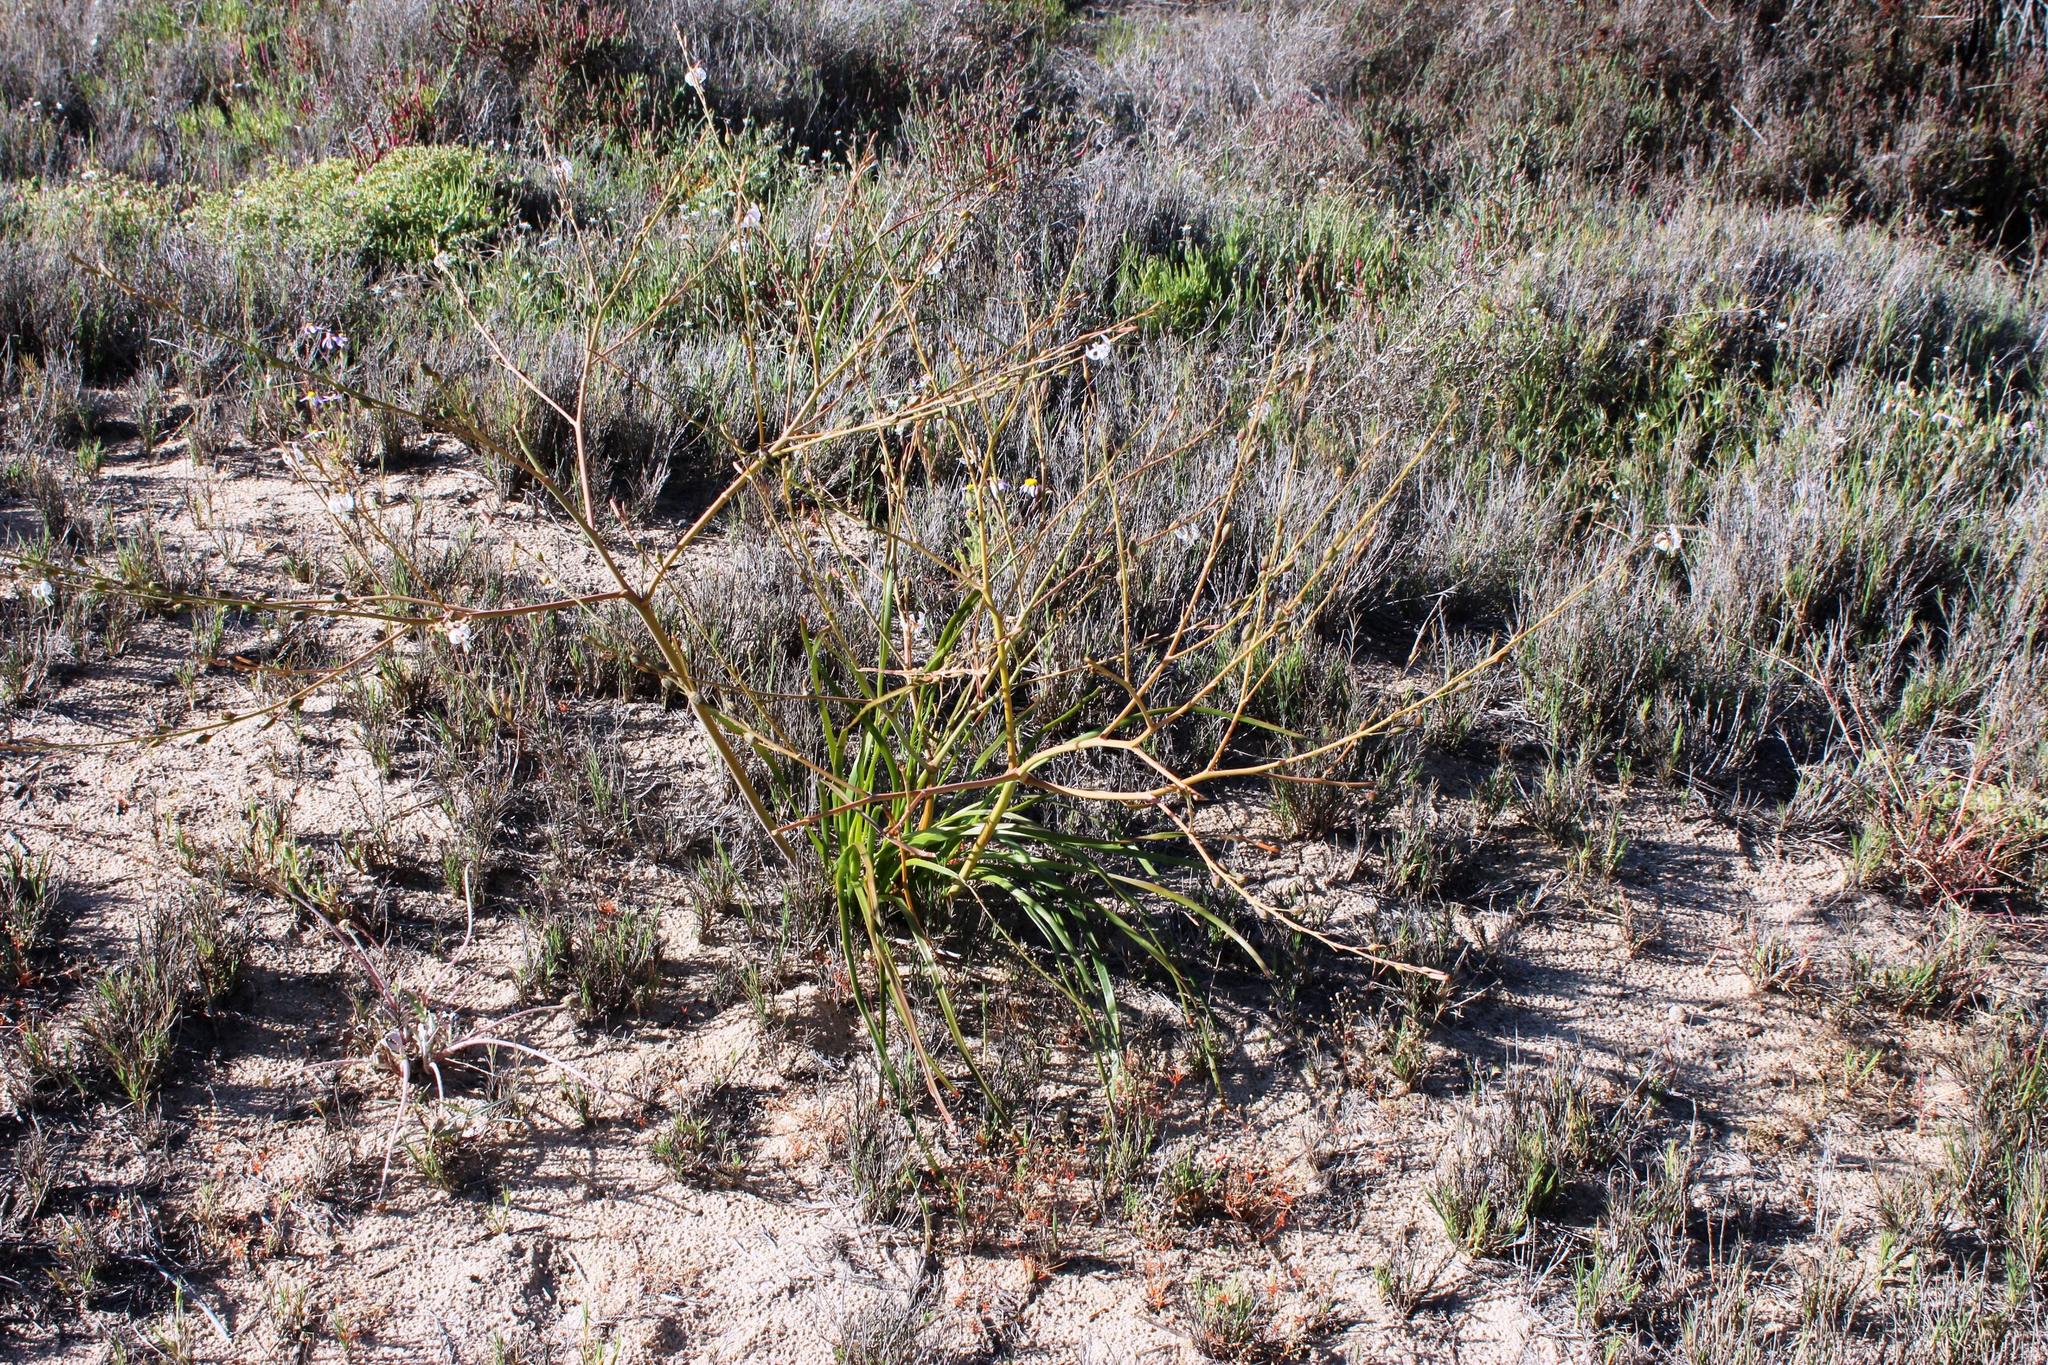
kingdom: Plantae
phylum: Tracheophyta
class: Liliopsida
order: Asparagales
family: Asphodelaceae
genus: Trachyandra
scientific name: Trachyandra divaricata
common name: Dune onionweed
